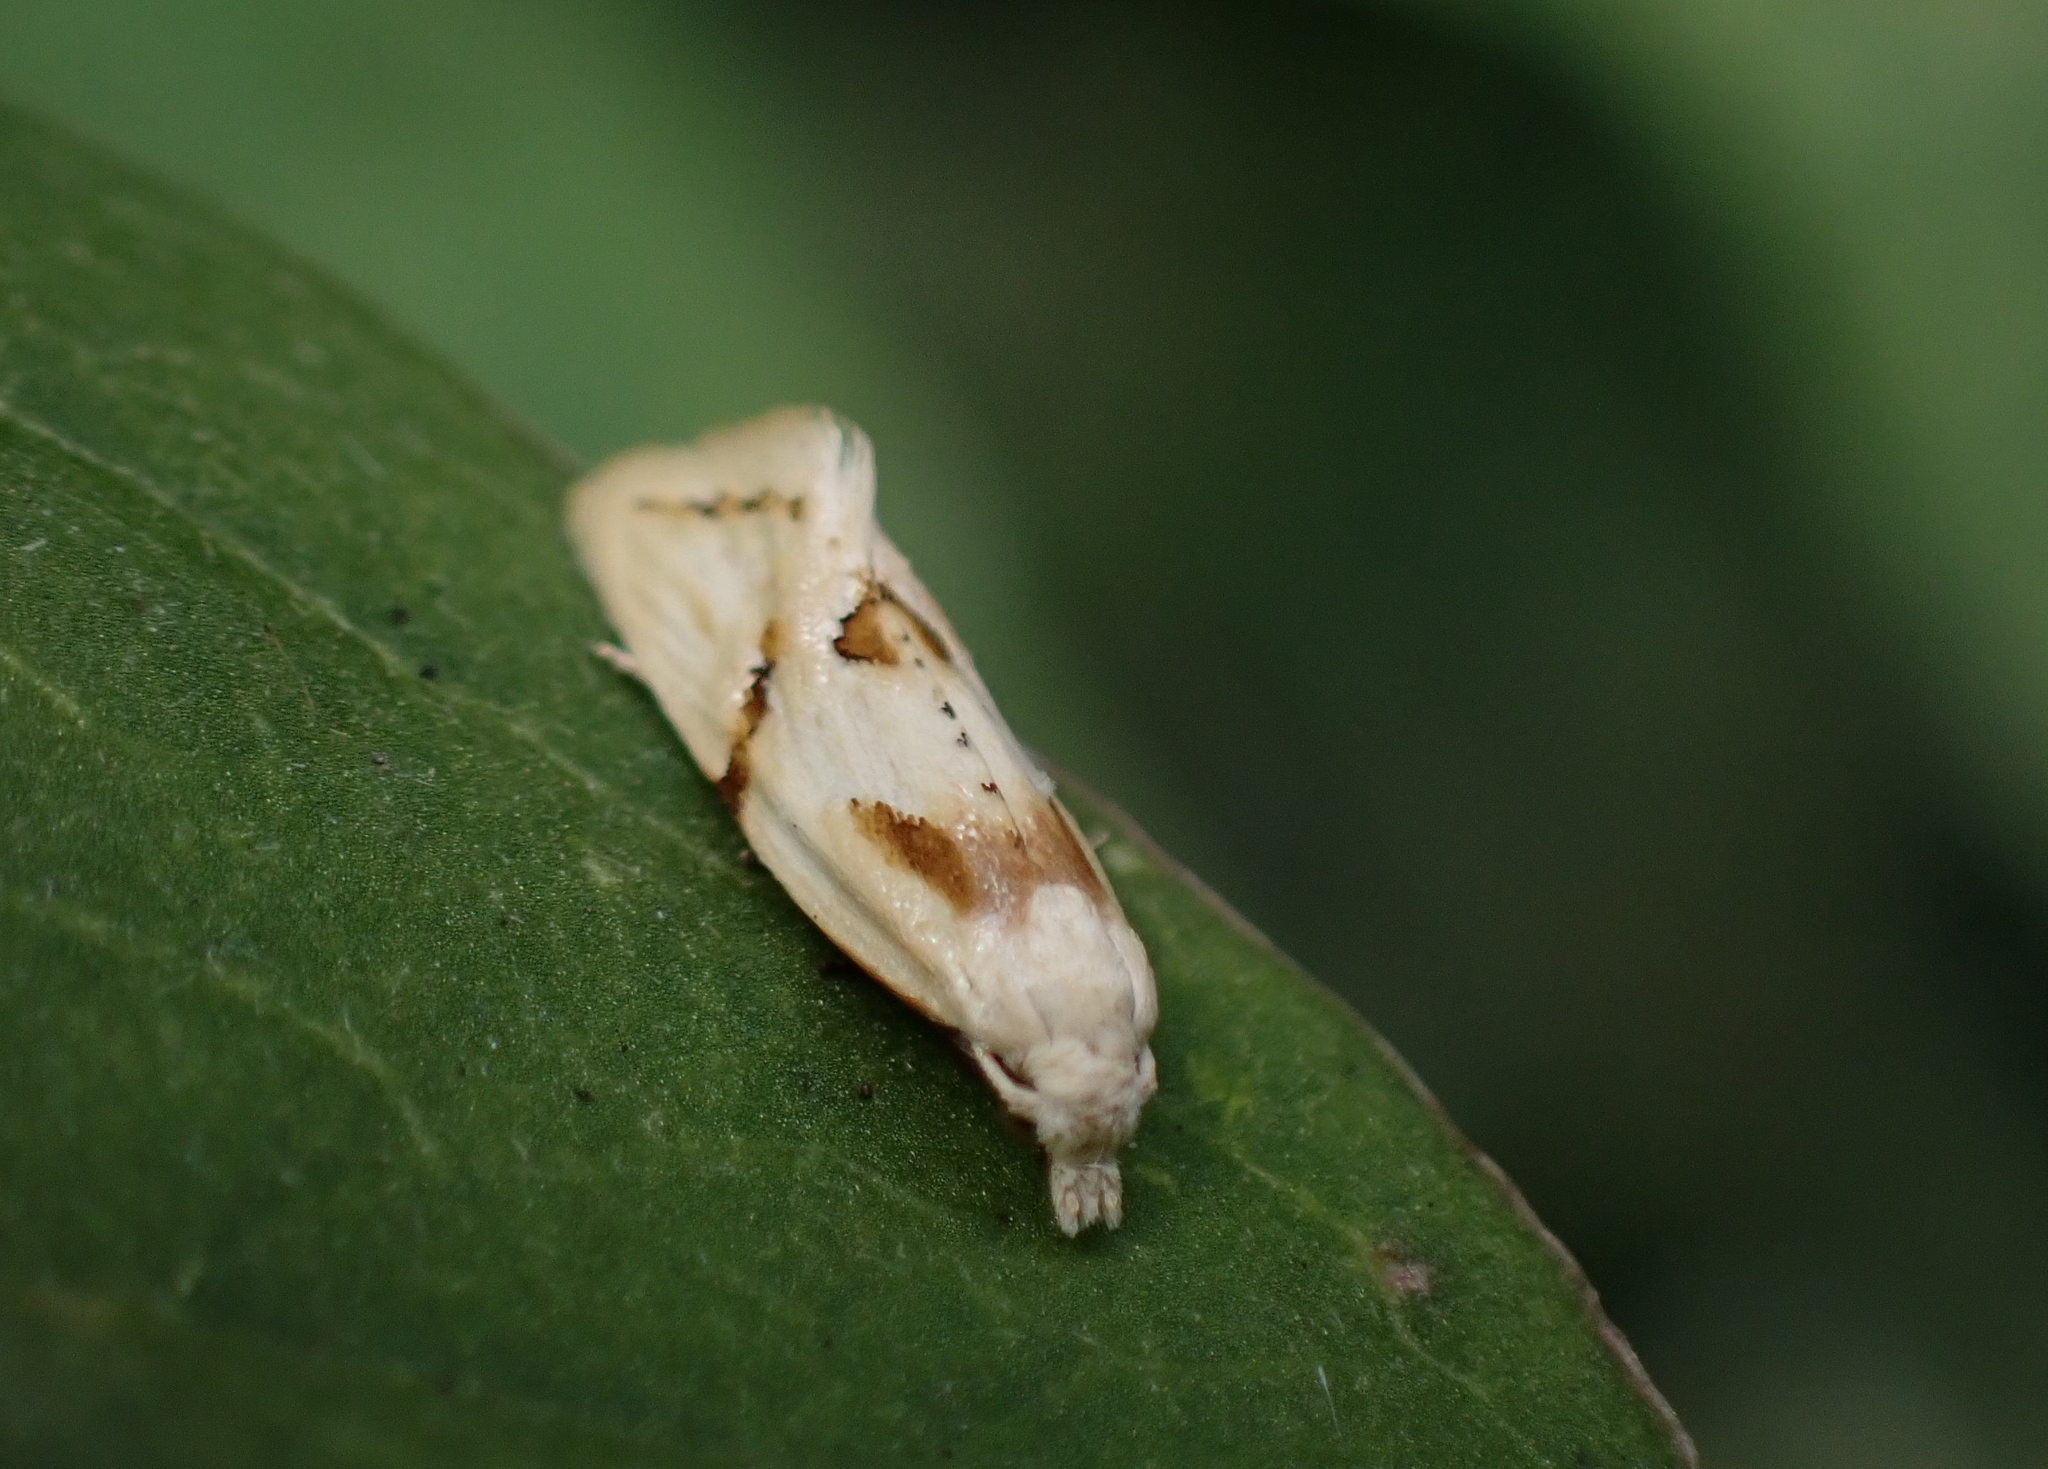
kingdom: Animalia
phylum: Arthropoda
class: Insecta
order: Lepidoptera
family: Tortricidae
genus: Aethes
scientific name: Aethes seriatana
